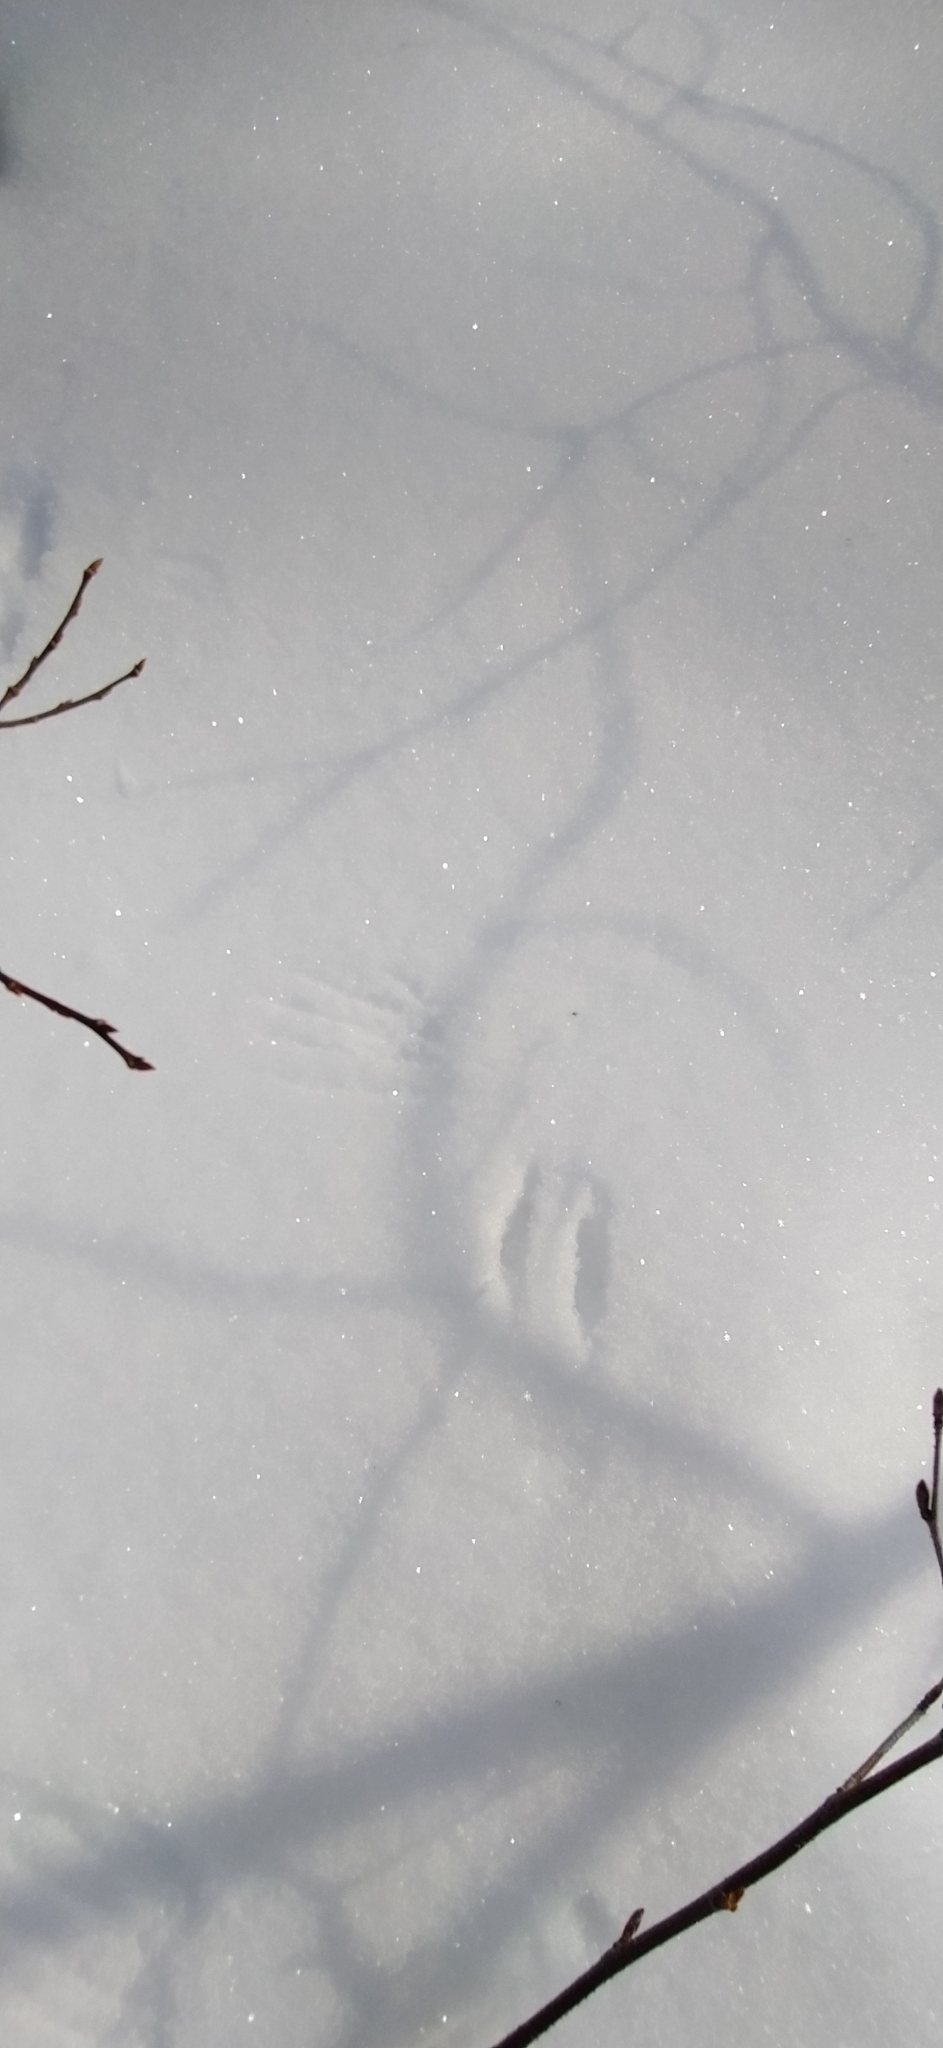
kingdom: Animalia
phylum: Chordata
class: Aves
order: Passeriformes
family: Paridae
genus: Parus
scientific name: Parus major
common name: Great tit
